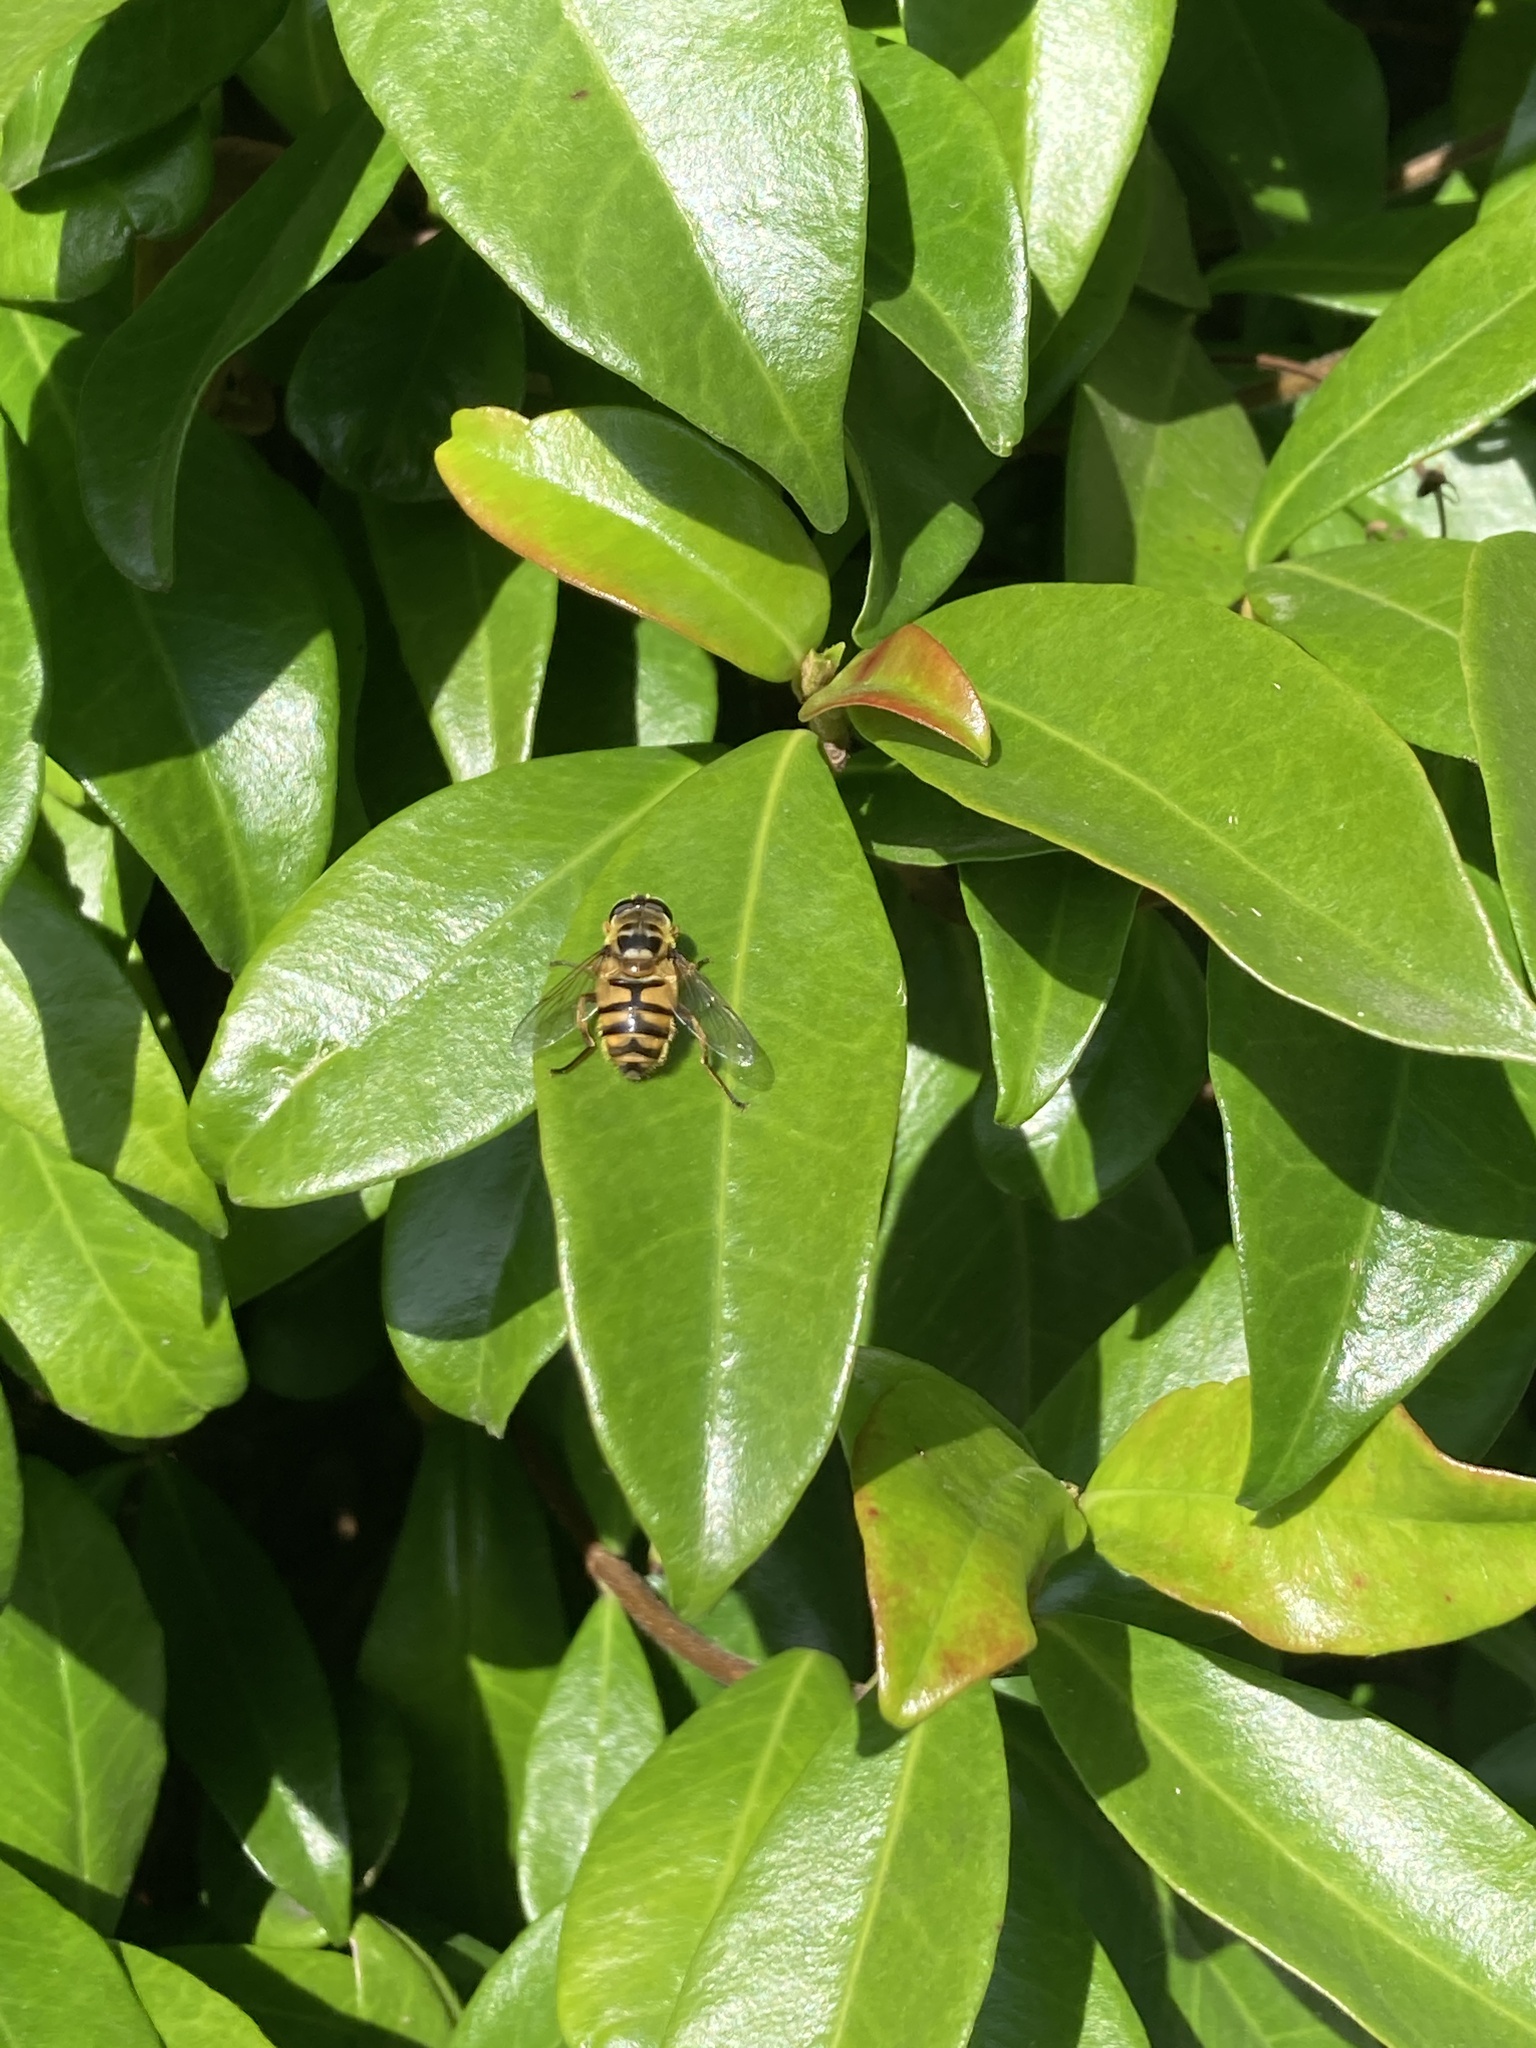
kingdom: Animalia
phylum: Arthropoda
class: Insecta
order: Diptera
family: Syrphidae
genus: Myathropa
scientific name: Myathropa florea
